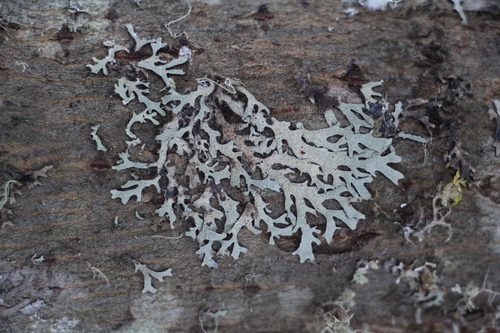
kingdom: Fungi
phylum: Ascomycota
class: Lecanoromycetes
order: Lecanorales
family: Parmeliaceae
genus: Parmelia
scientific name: Parmelia sulcata
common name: Netted shield lichen
